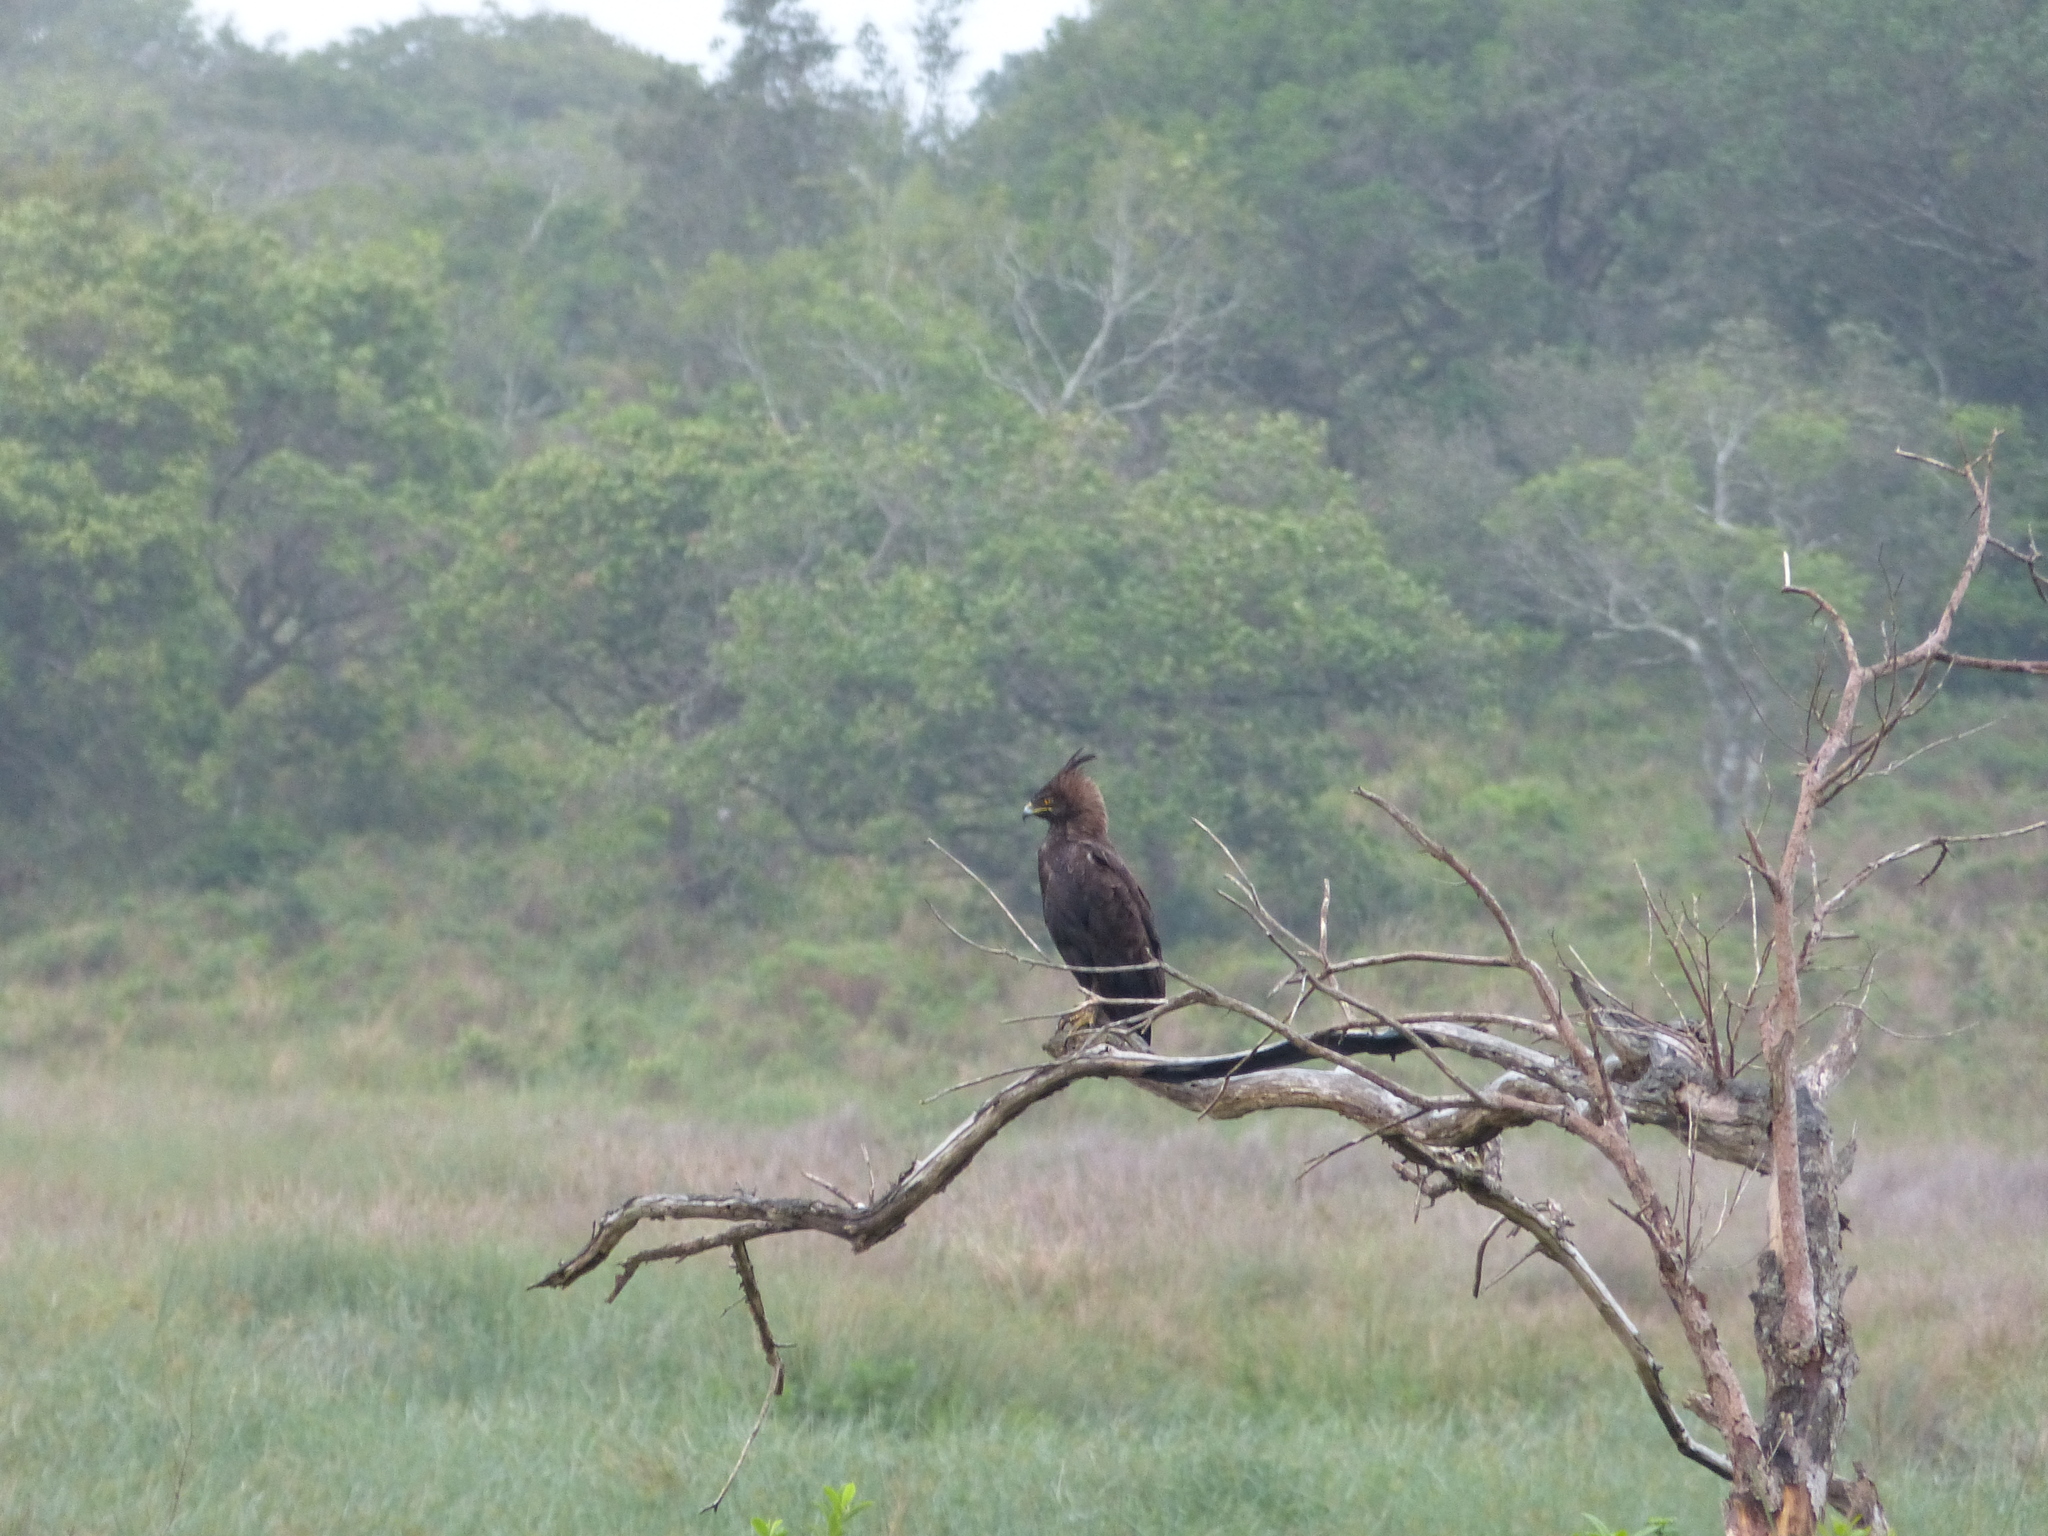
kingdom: Animalia
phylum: Chordata
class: Aves
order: Accipitriformes
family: Accipitridae
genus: Lophaetus
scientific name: Lophaetus occipitalis
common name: Long-crested eagle
